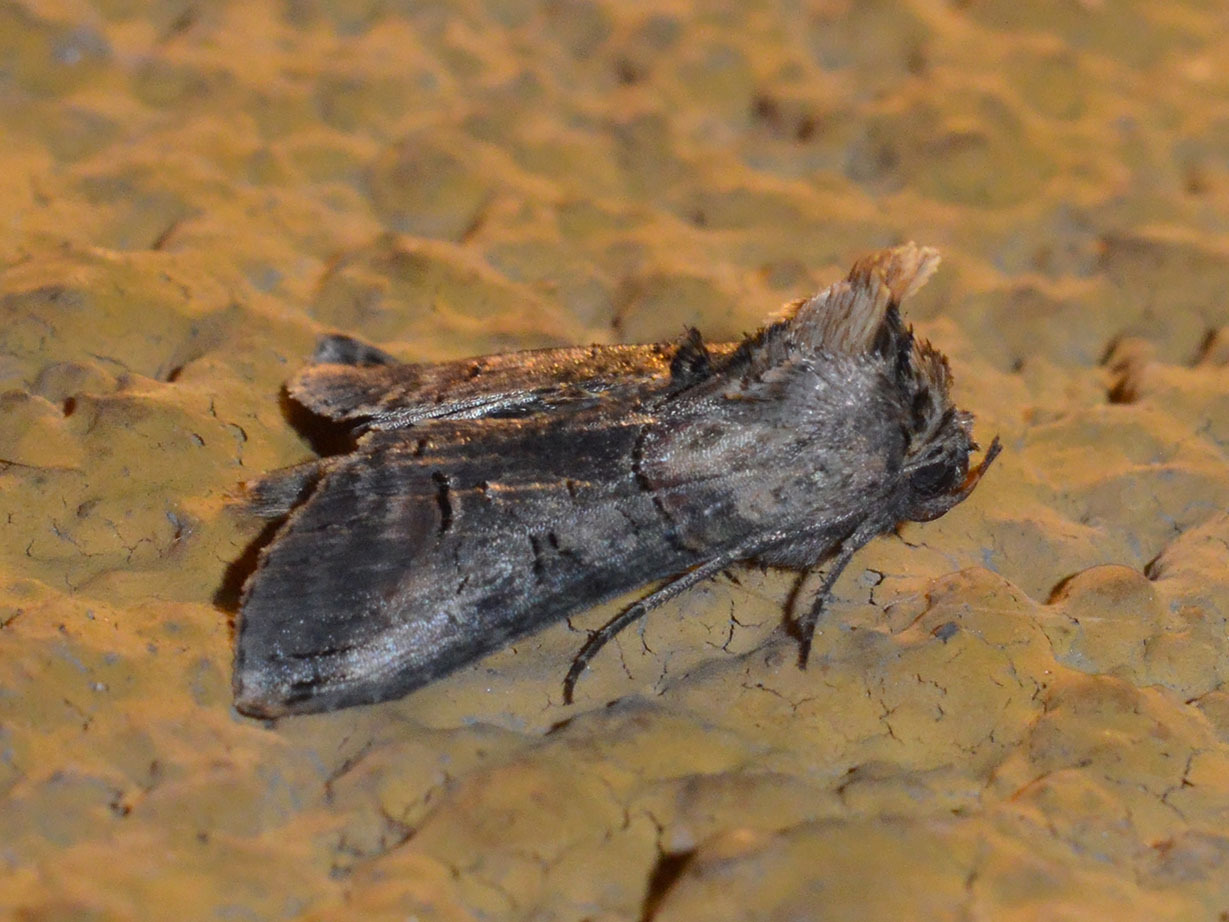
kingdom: Animalia
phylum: Arthropoda
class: Insecta
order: Lepidoptera
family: Noctuidae
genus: Abrostola
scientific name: Abrostola triplasia
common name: Dark spectacle
